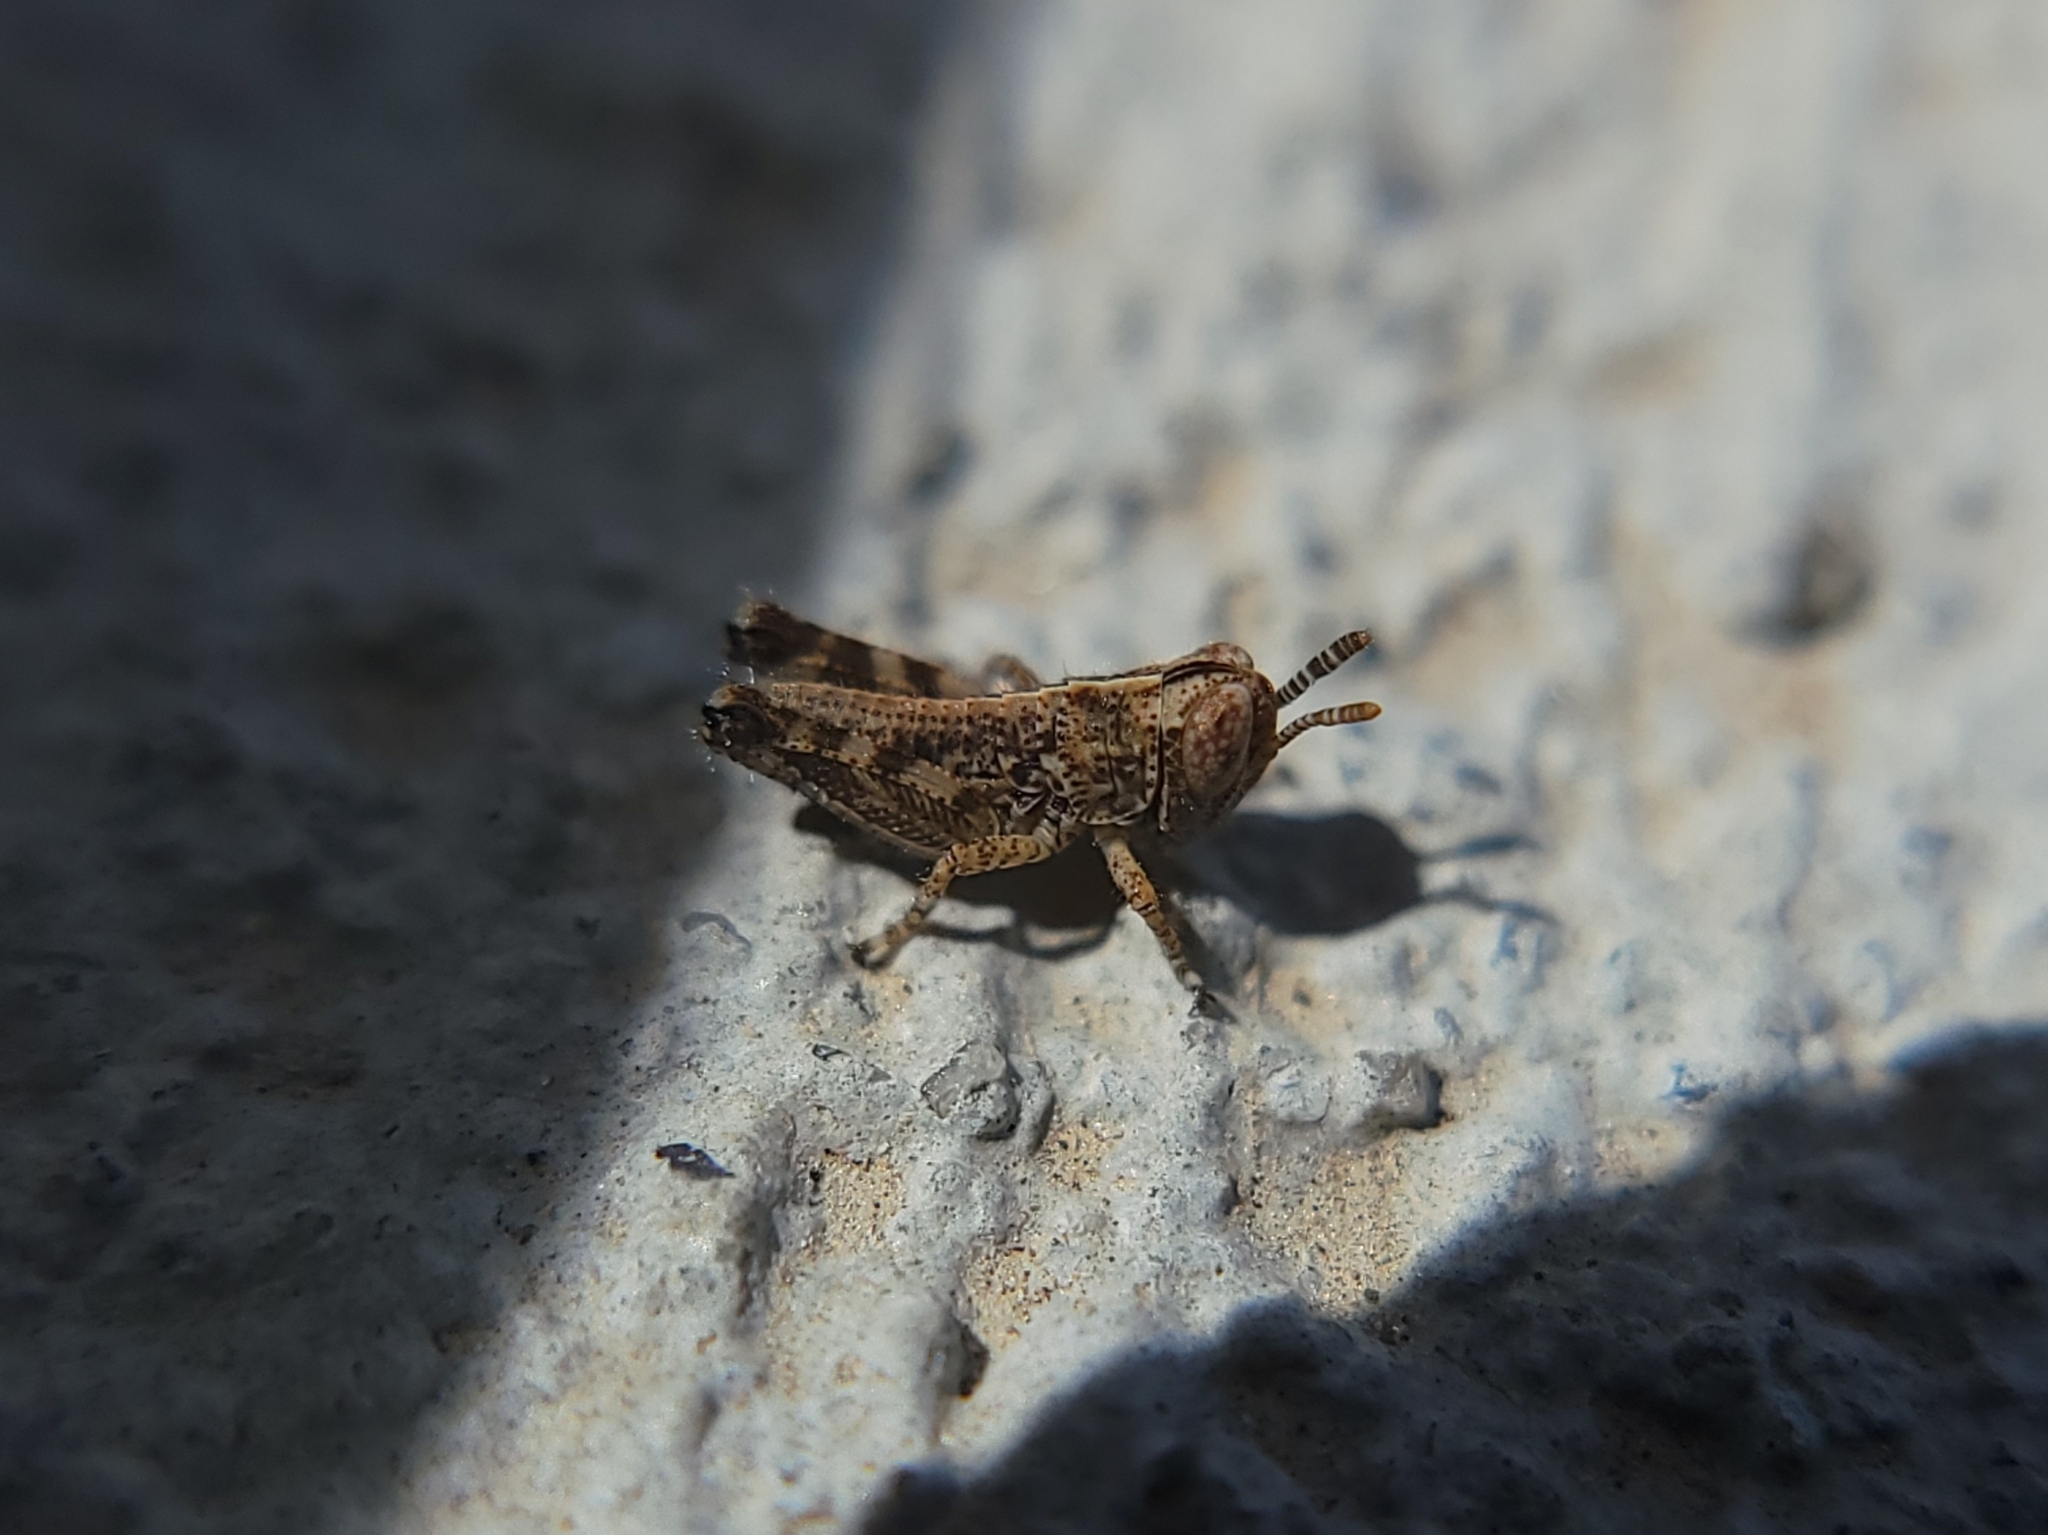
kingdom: Animalia
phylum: Arthropoda
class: Insecta
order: Orthoptera
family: Acrididae
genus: Oedaleonotus
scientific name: Oedaleonotus enigma
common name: Valley grasshopper
